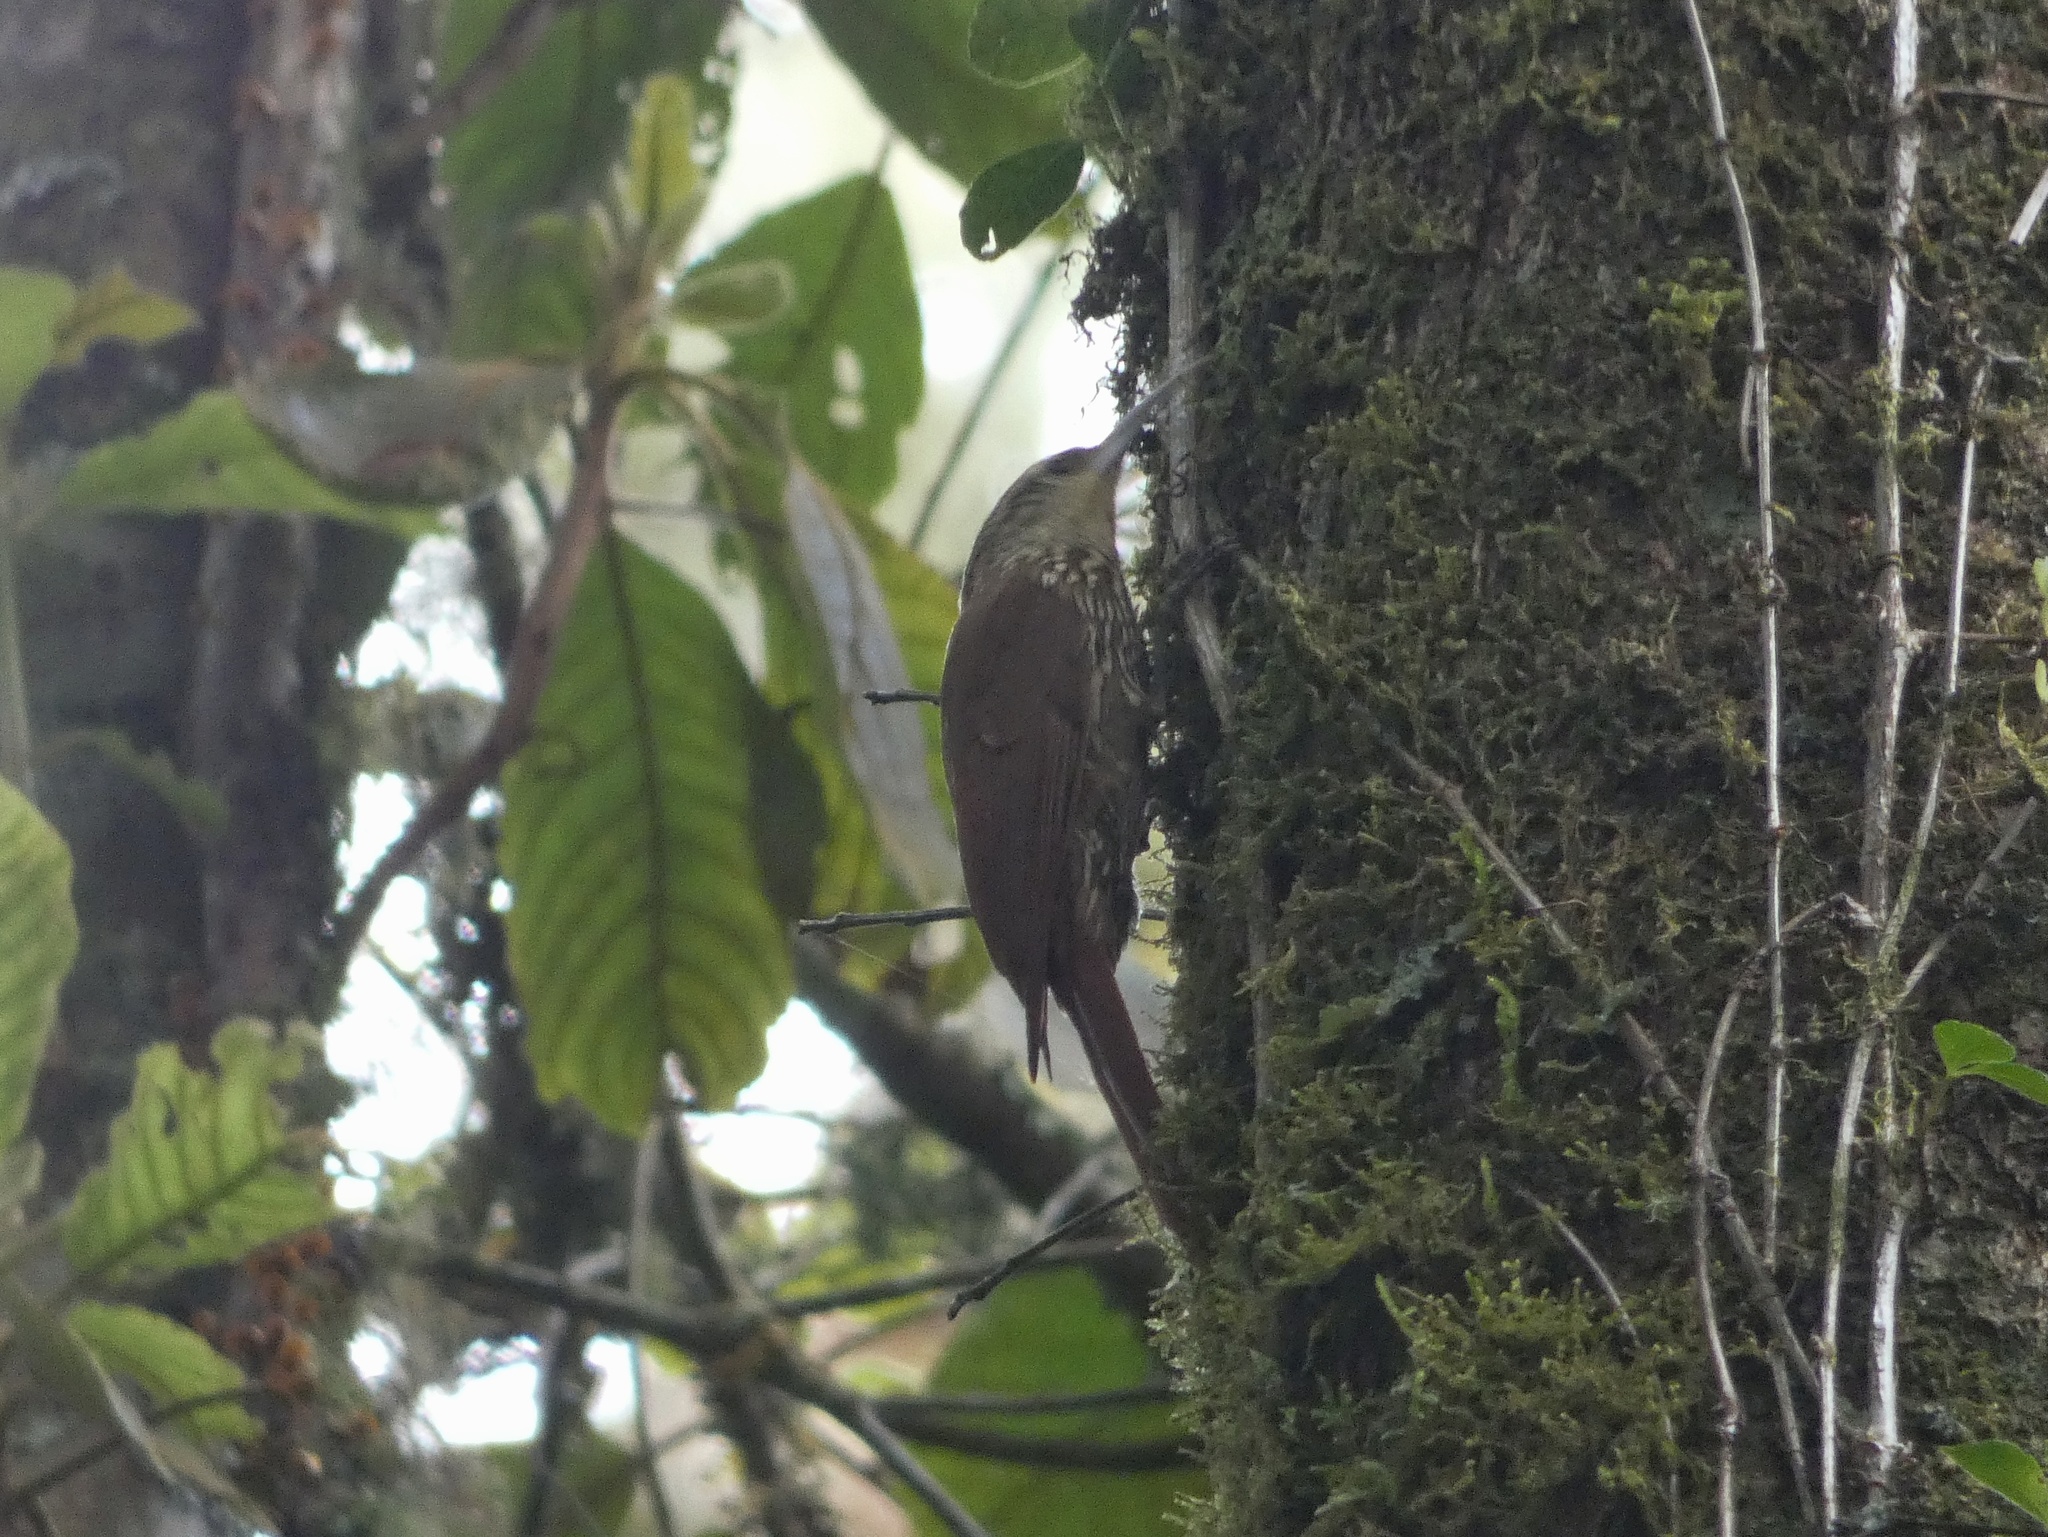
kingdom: Animalia
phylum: Chordata
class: Aves
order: Passeriformes
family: Furnariidae
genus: Lepidocolaptes
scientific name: Lepidocolaptes affinis
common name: Spot-crowned woodcreeper
